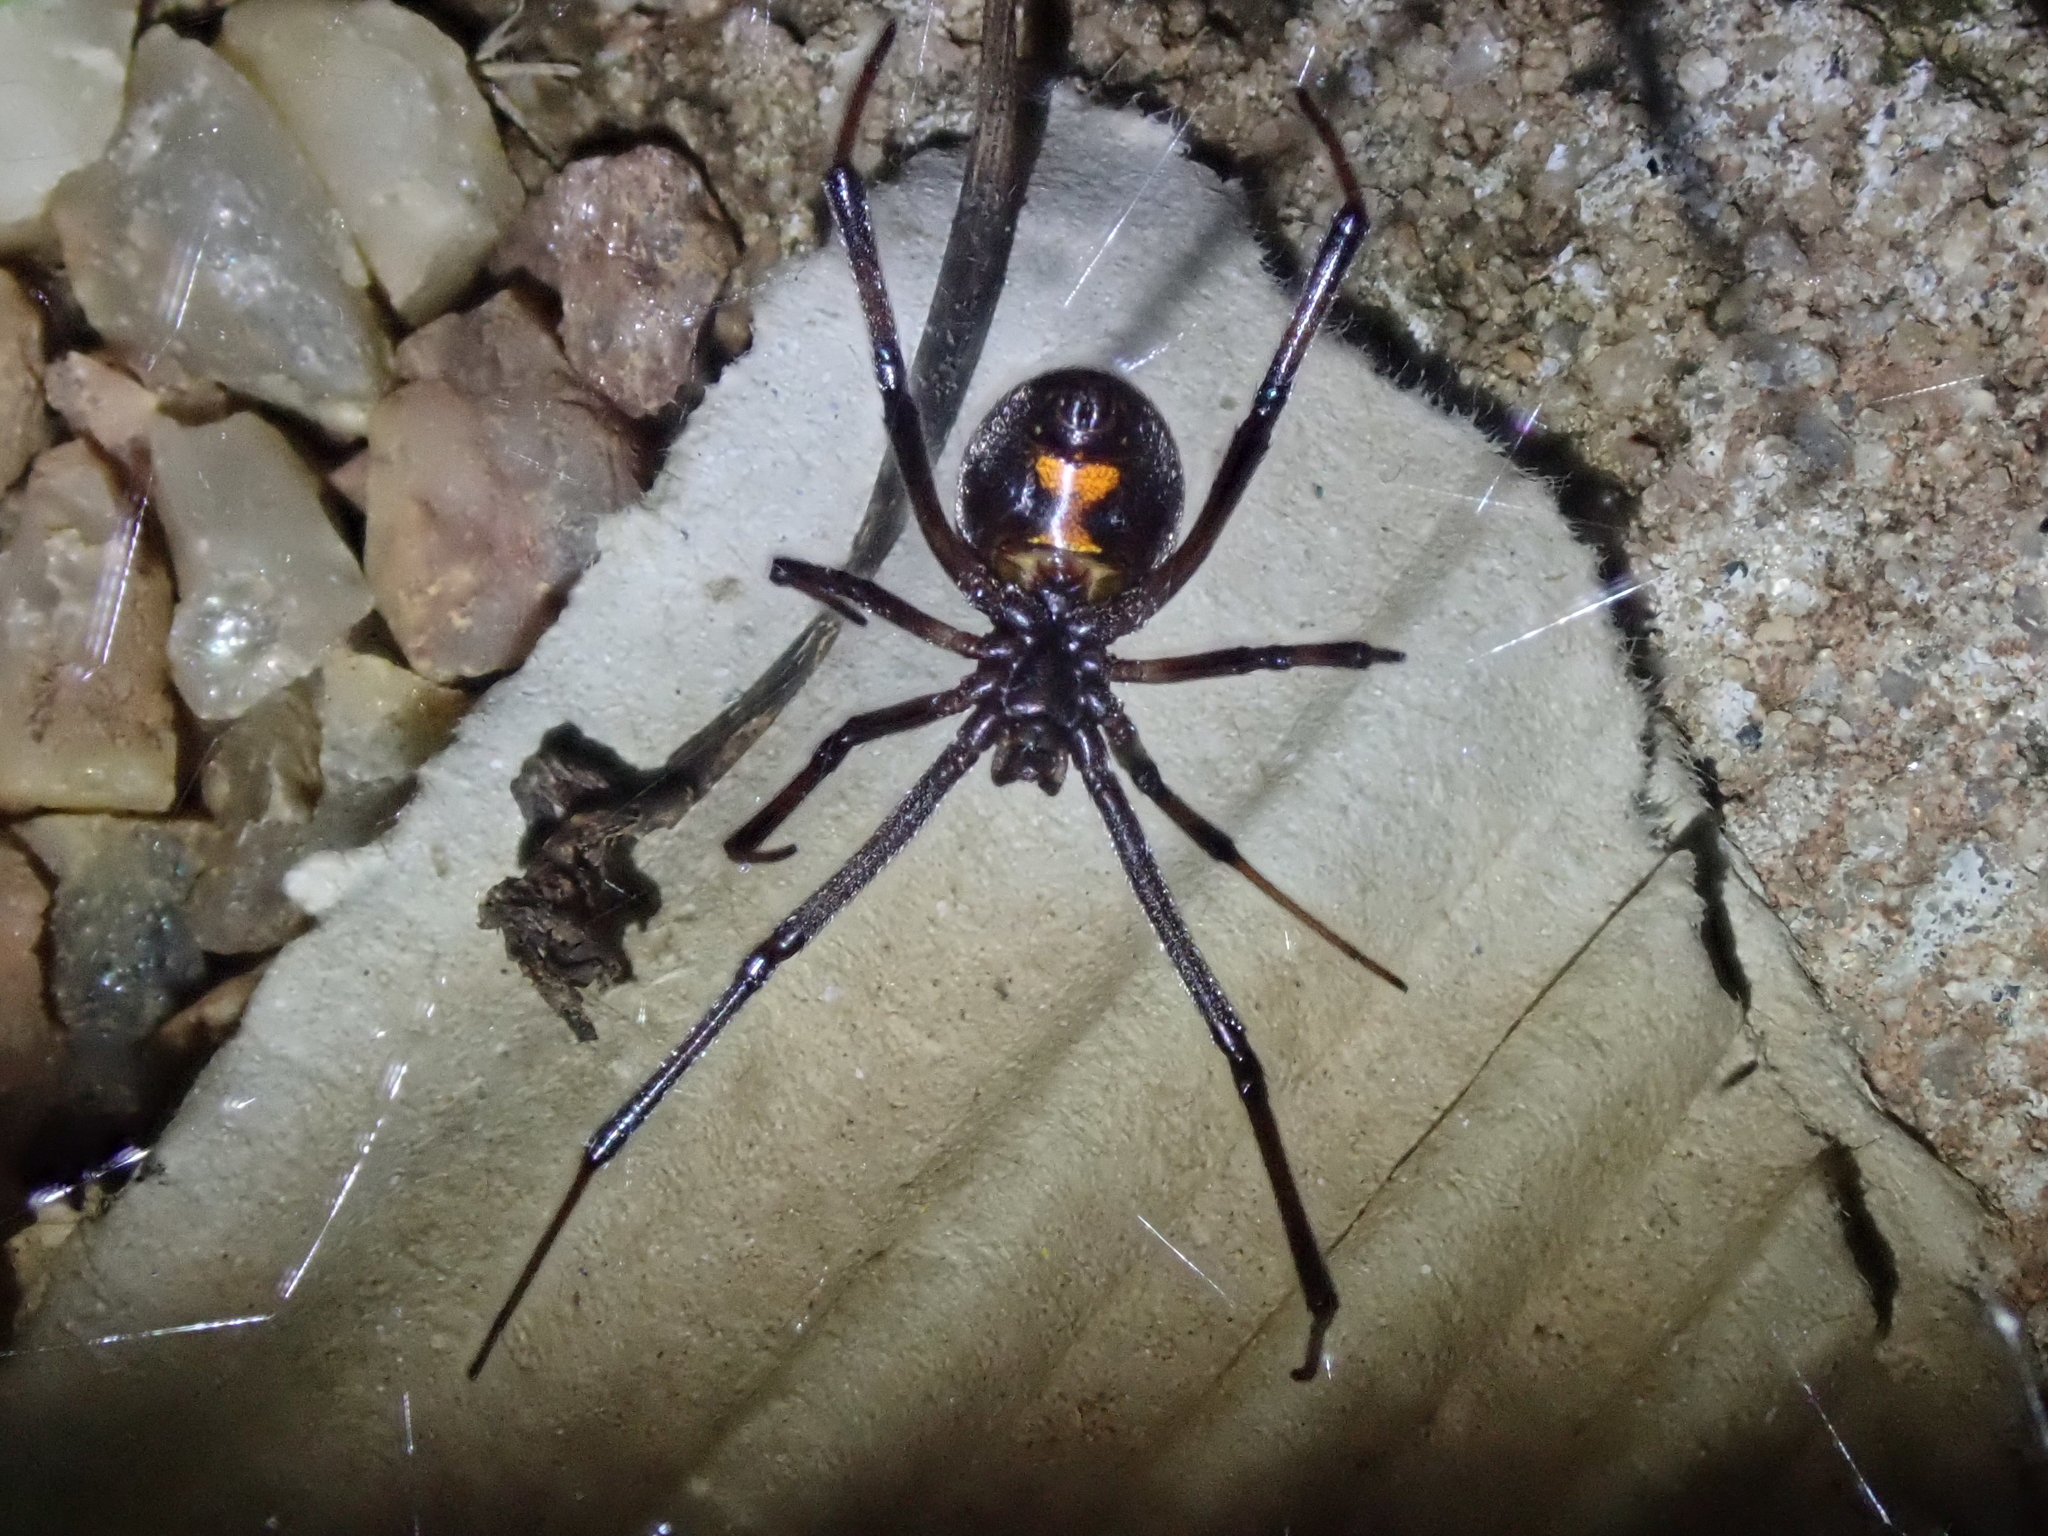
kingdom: Animalia
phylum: Arthropoda
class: Arachnida
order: Araneae
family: Theridiidae
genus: Latrodectus
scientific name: Latrodectus geometricus
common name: Brown widow spider
